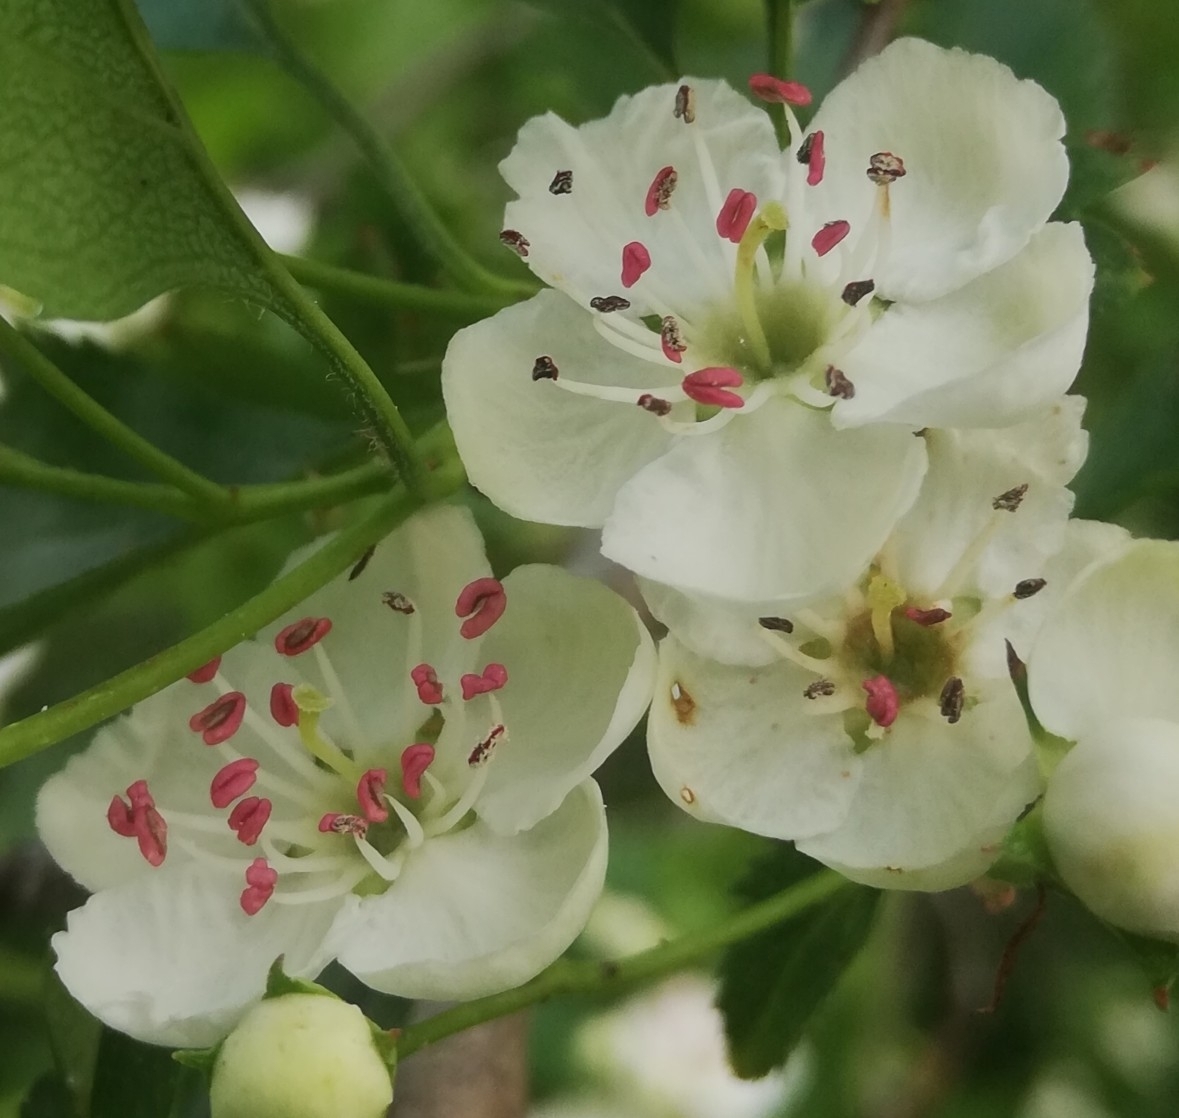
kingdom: Plantae
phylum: Tracheophyta
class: Magnoliopsida
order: Rosales
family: Rosaceae
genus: Crataegus
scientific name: Crataegus monogyna
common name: Hawthorn
